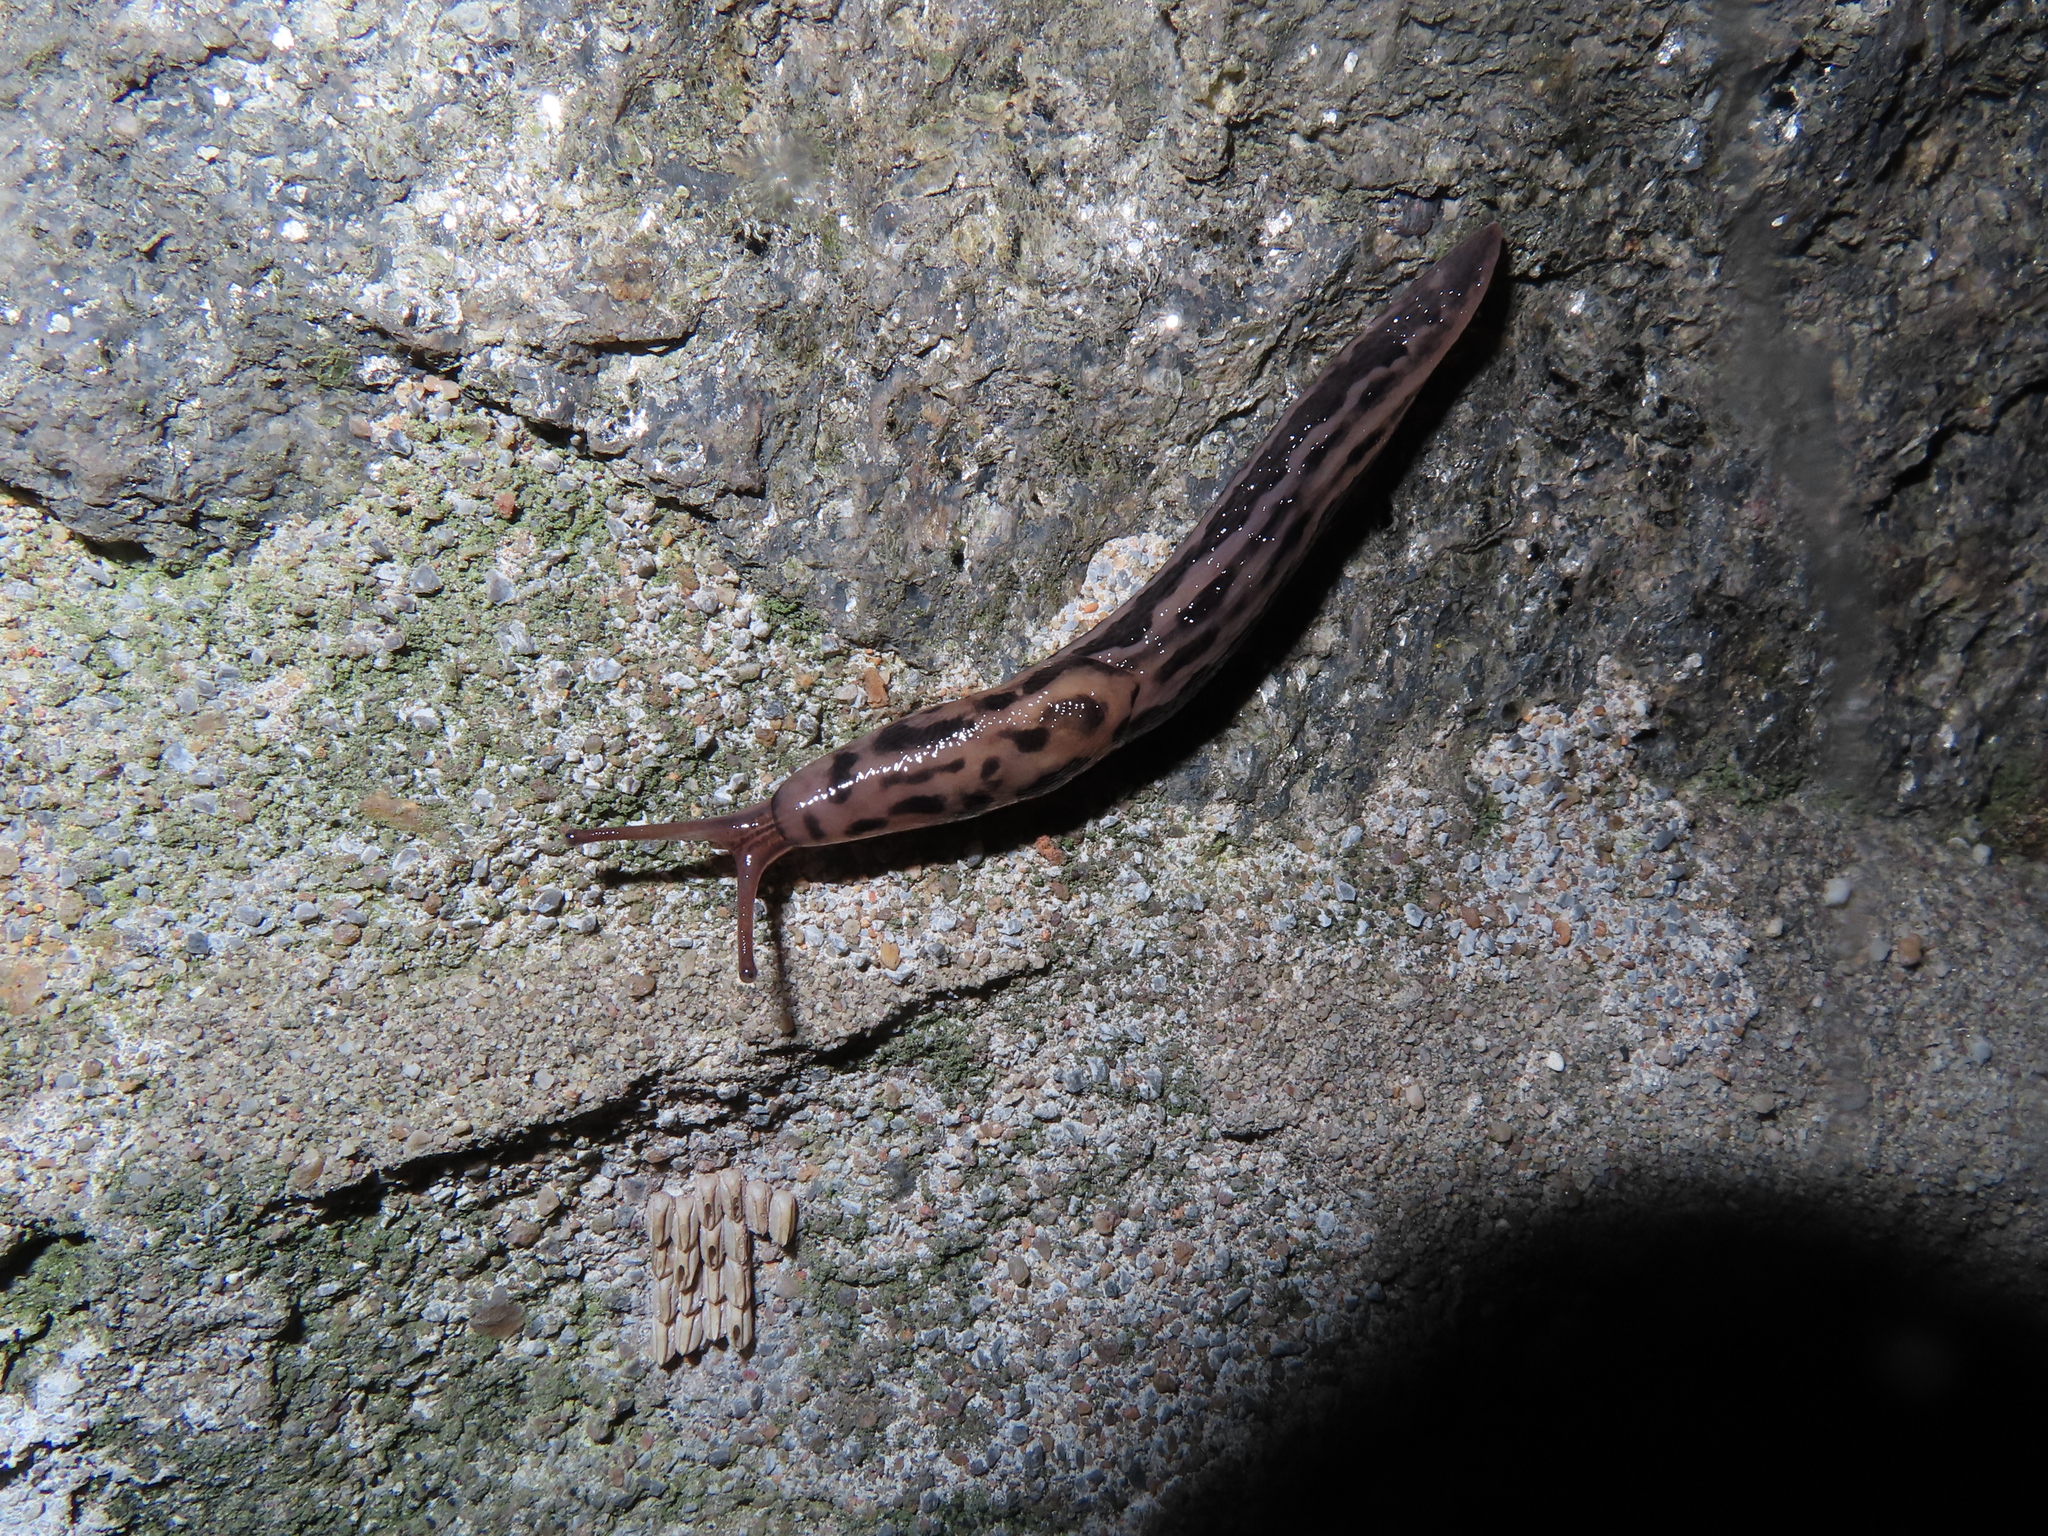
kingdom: Animalia
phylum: Mollusca
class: Gastropoda
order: Stylommatophora
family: Limacidae
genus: Limax
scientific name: Limax maximus
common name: Great grey slug
